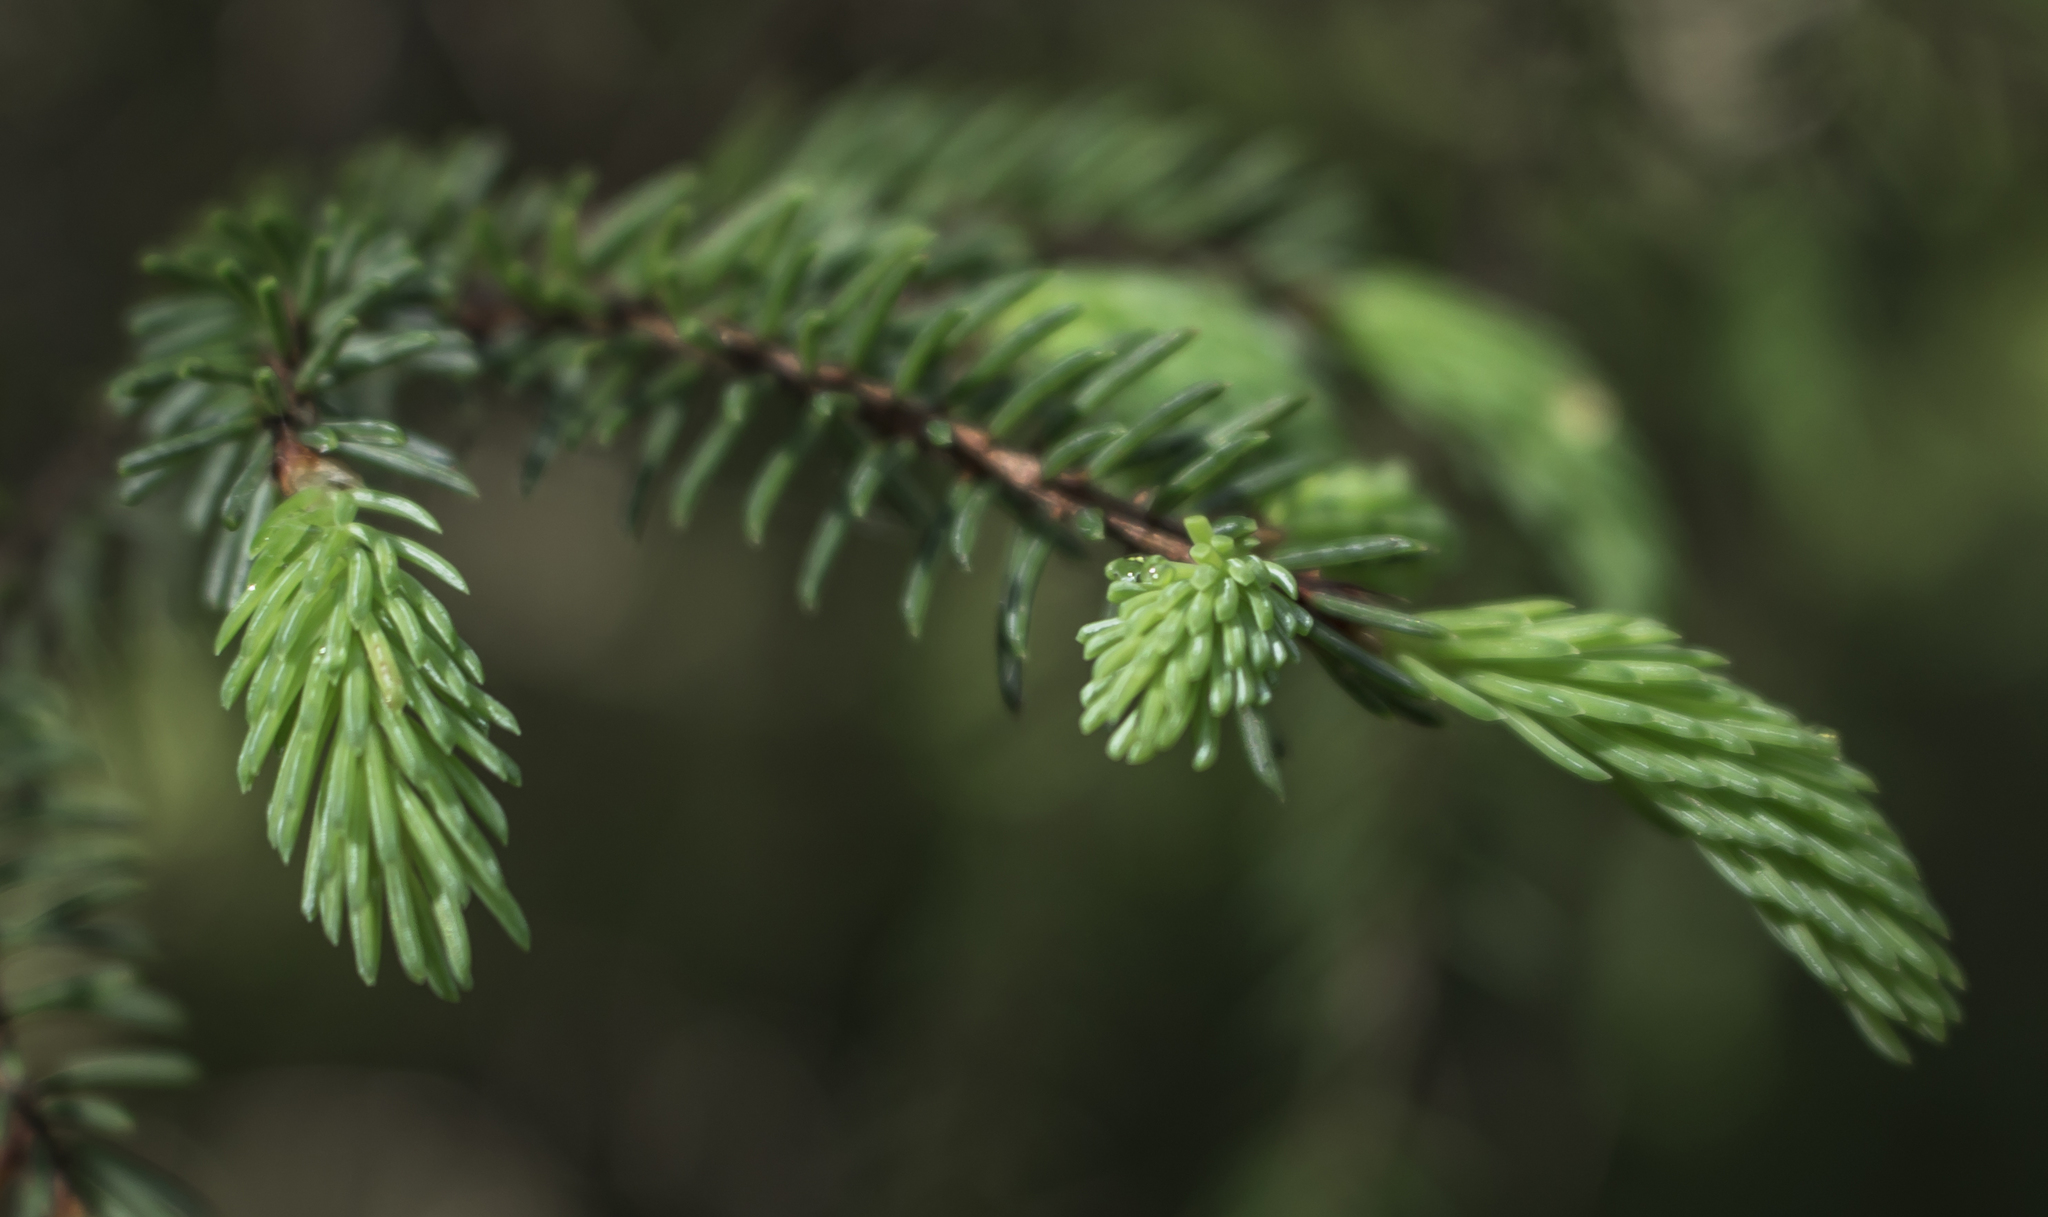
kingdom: Plantae
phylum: Tracheophyta
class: Pinopsida
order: Pinales
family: Pinaceae
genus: Picea
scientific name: Picea mariana
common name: Black spruce
